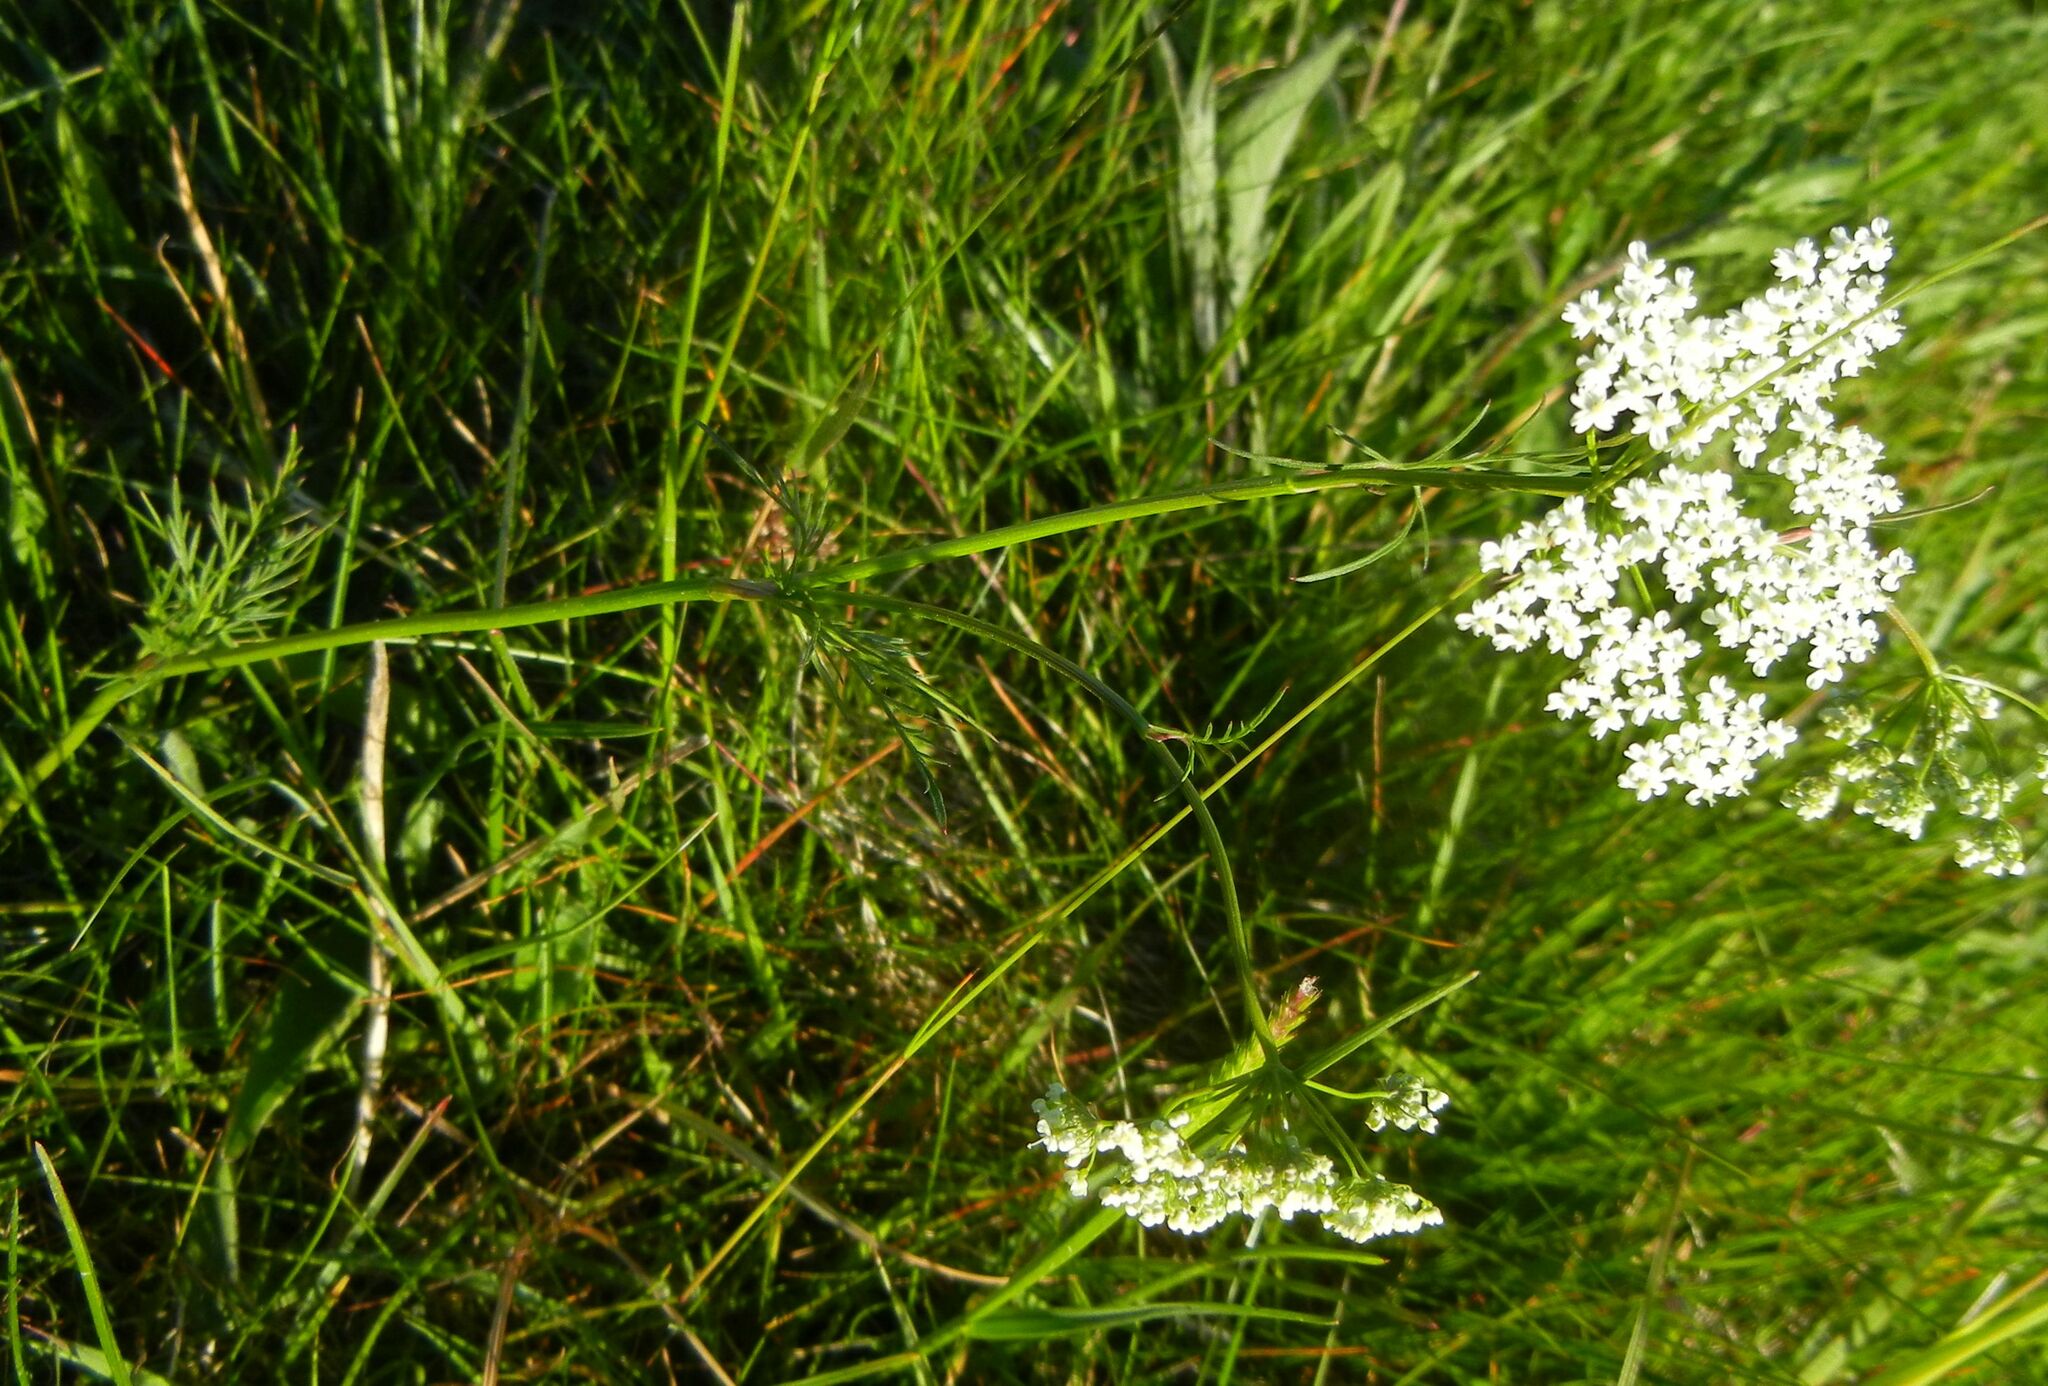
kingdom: Plantae
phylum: Tracheophyta
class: Magnoliopsida
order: Apiales
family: Apiaceae
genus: Conopodium
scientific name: Conopodium majus
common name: Pignut
